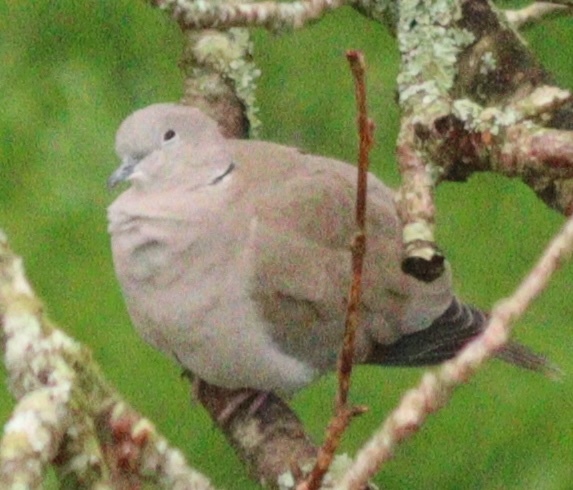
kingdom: Animalia
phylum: Chordata
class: Aves
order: Columbiformes
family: Columbidae
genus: Streptopelia
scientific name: Streptopelia decaocto
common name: Eurasian collared dove
